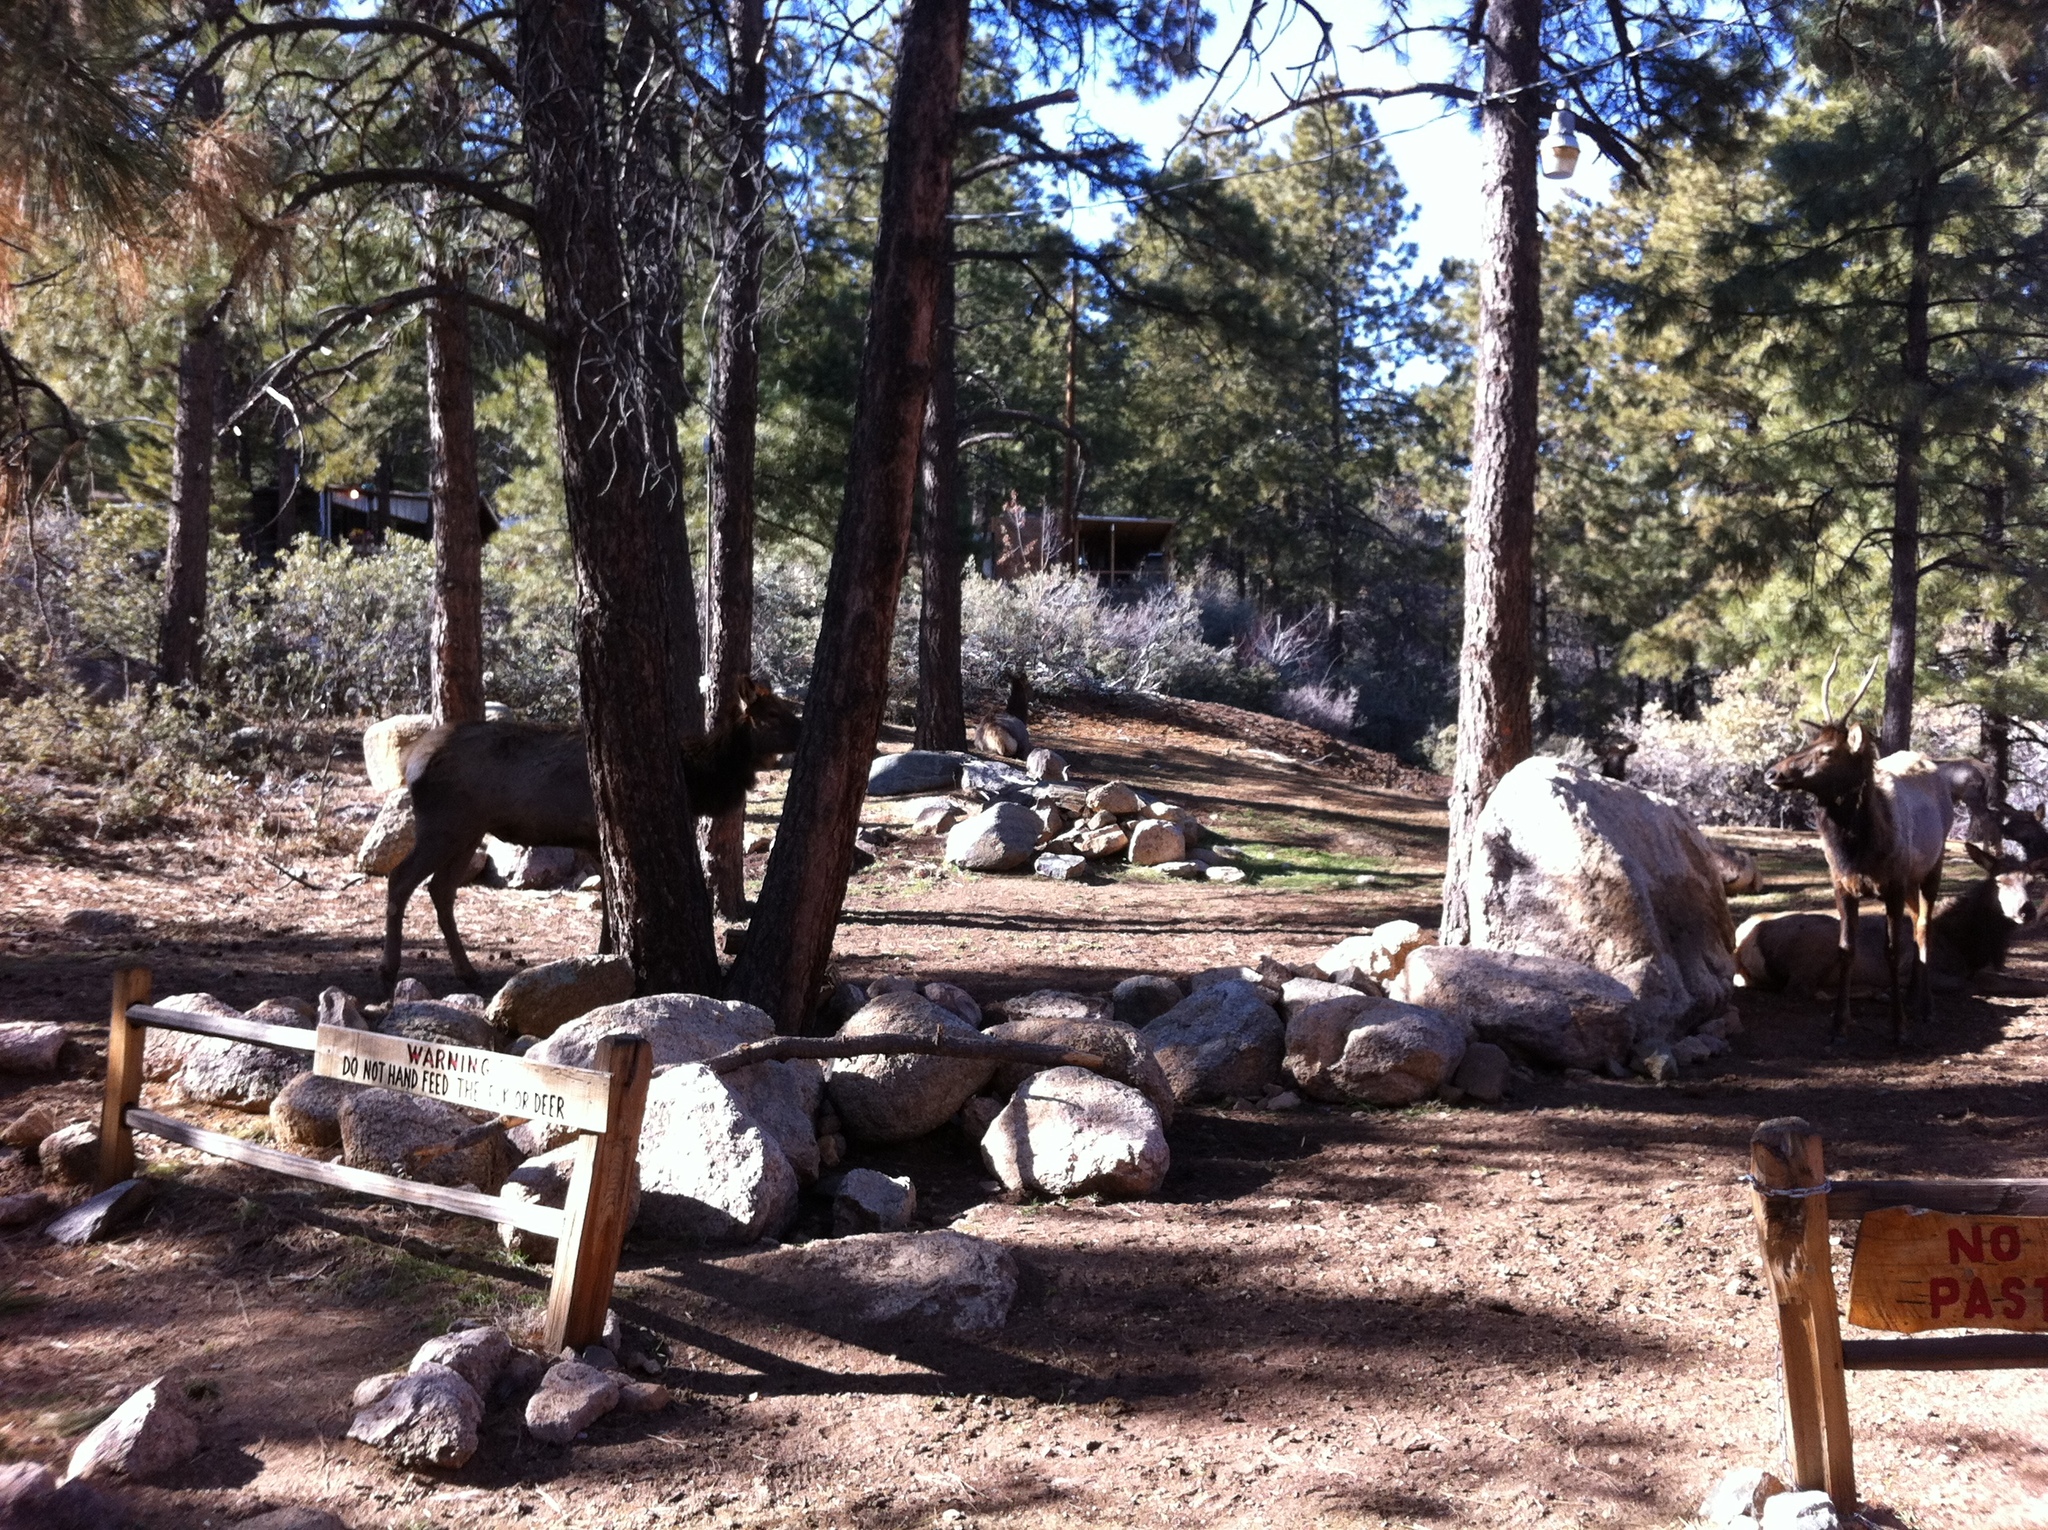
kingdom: Animalia
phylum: Chordata
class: Mammalia
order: Artiodactyla
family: Cervidae
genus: Cervus
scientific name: Cervus elaphus
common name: Red deer
